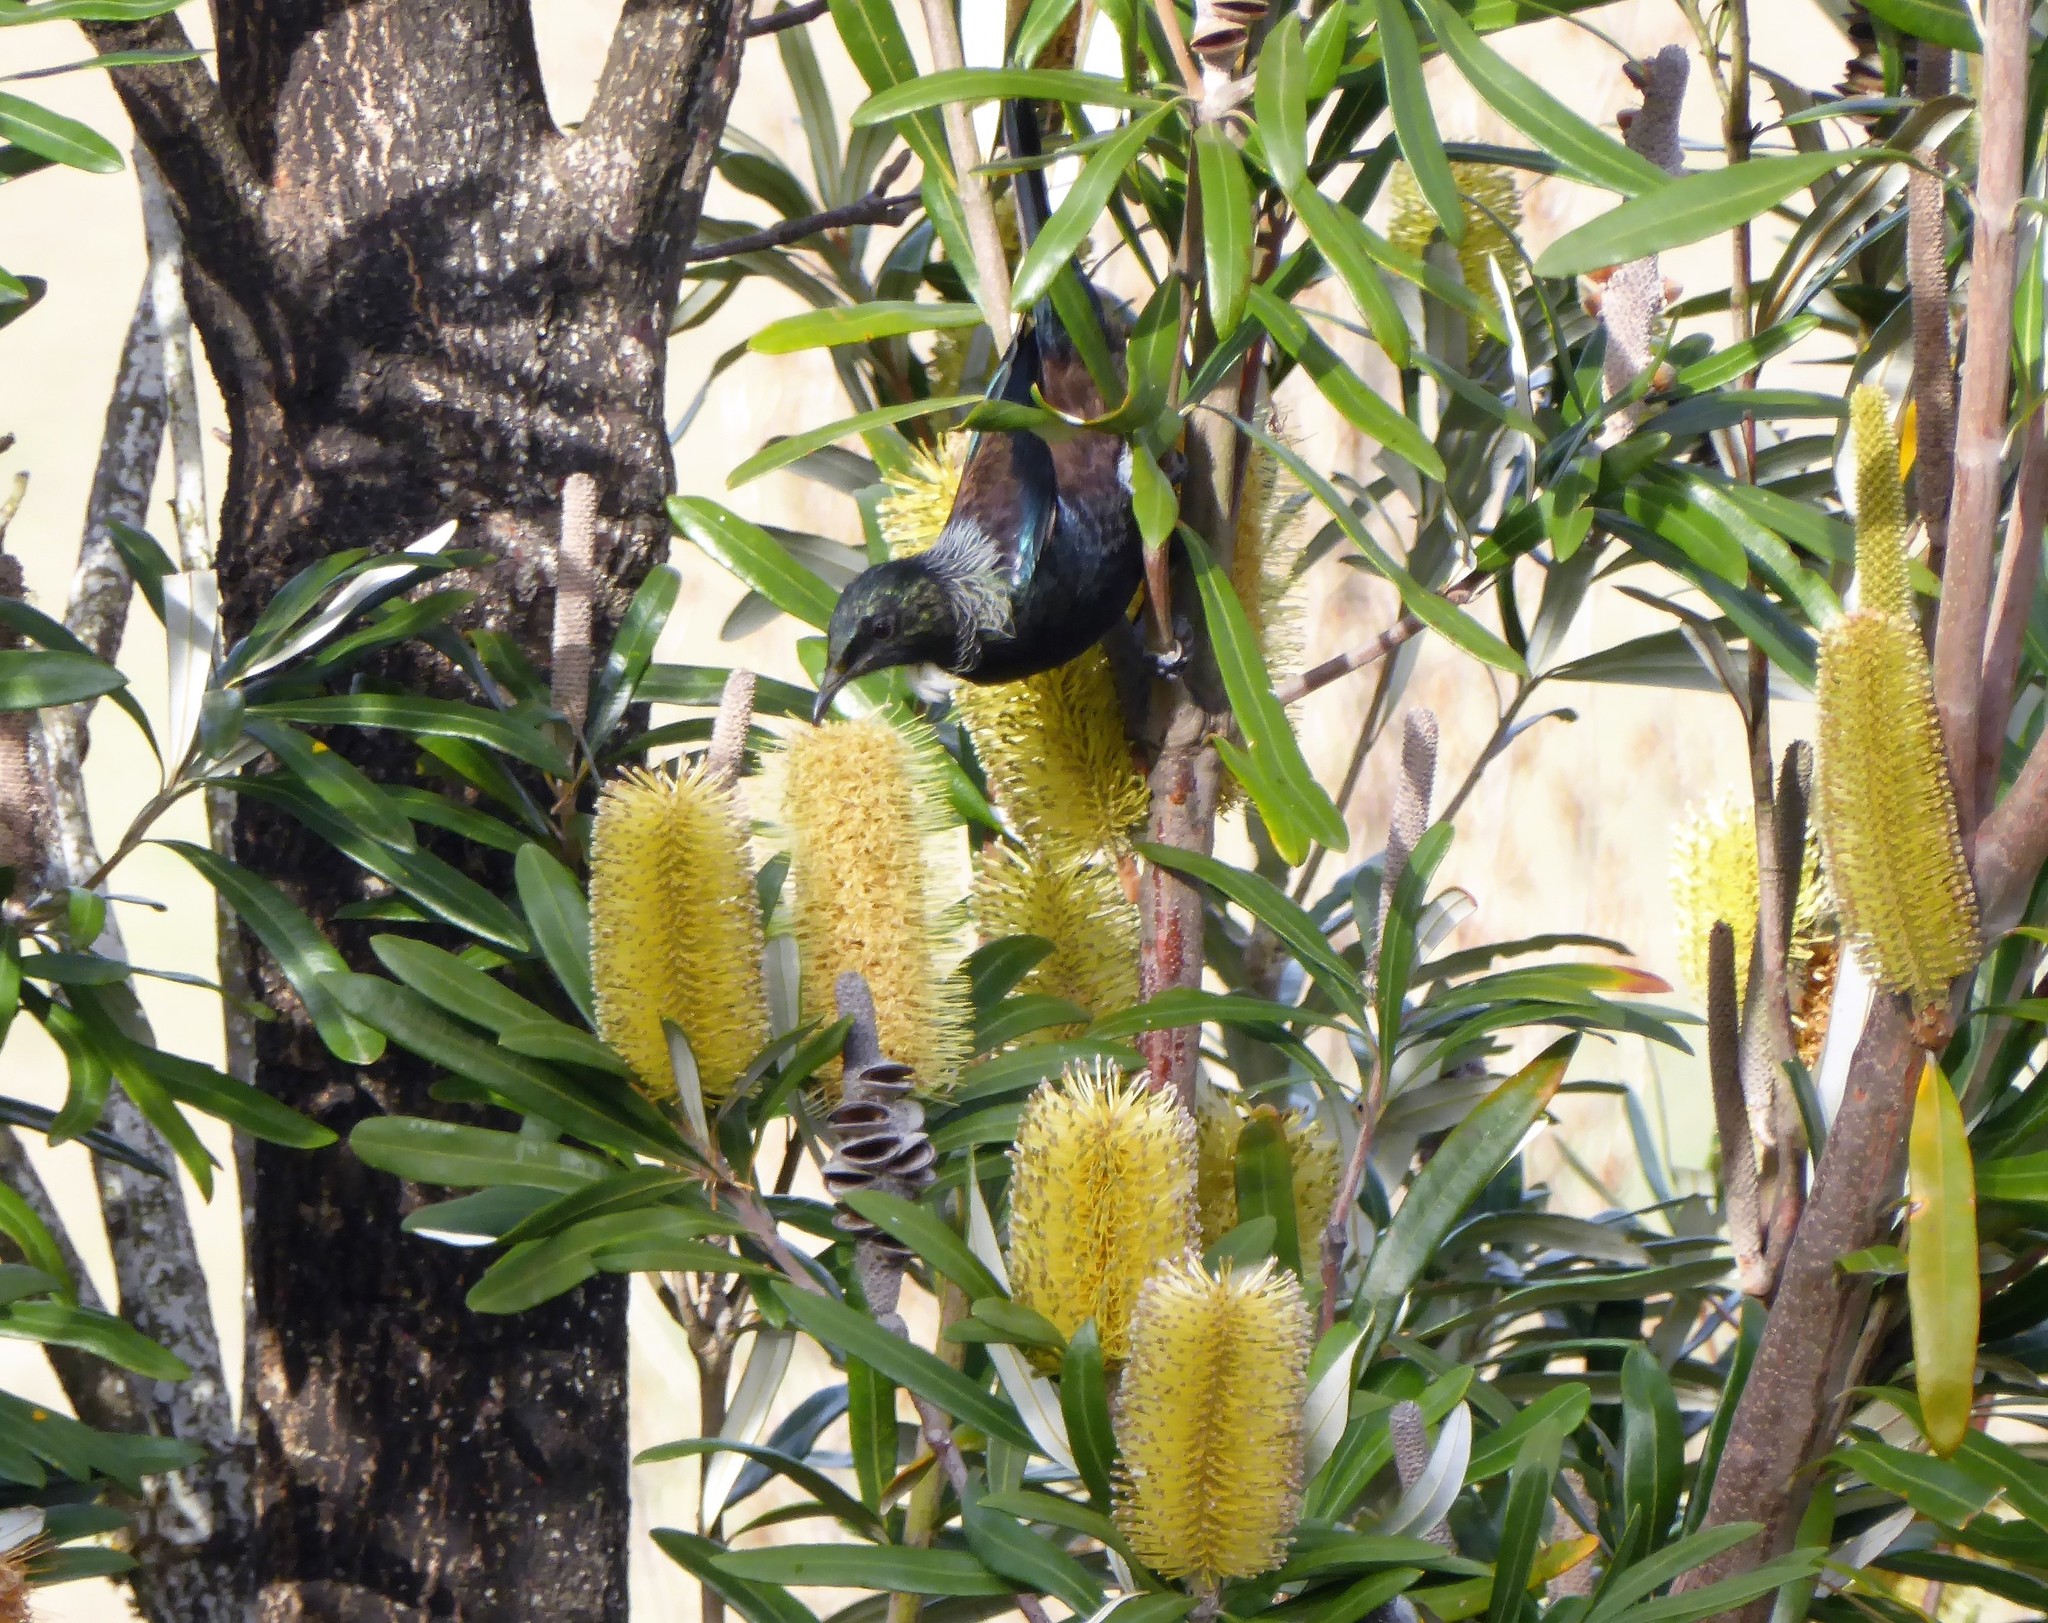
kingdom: Animalia
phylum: Chordata
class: Aves
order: Passeriformes
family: Meliphagidae
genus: Prosthemadera
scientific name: Prosthemadera novaeseelandiae
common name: Tui
